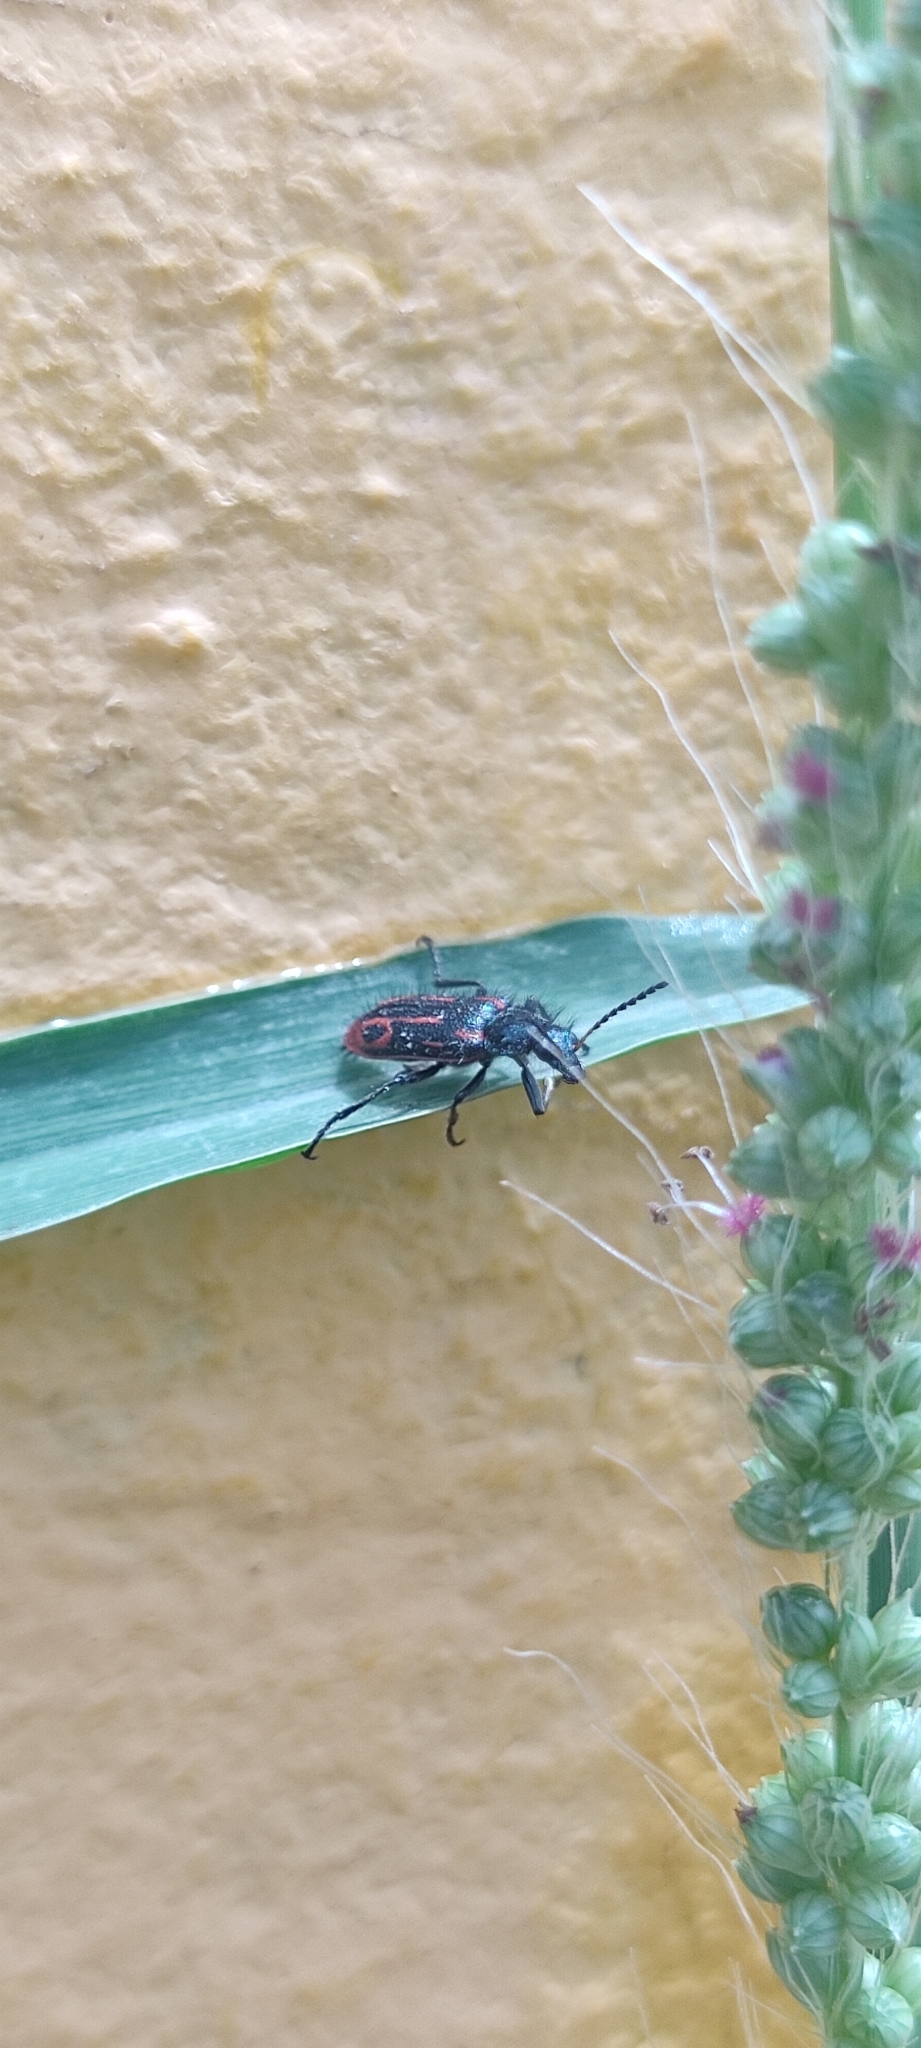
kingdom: Animalia
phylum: Arthropoda
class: Insecta
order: Coleoptera
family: Melyridae
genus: Astylus
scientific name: Astylus
